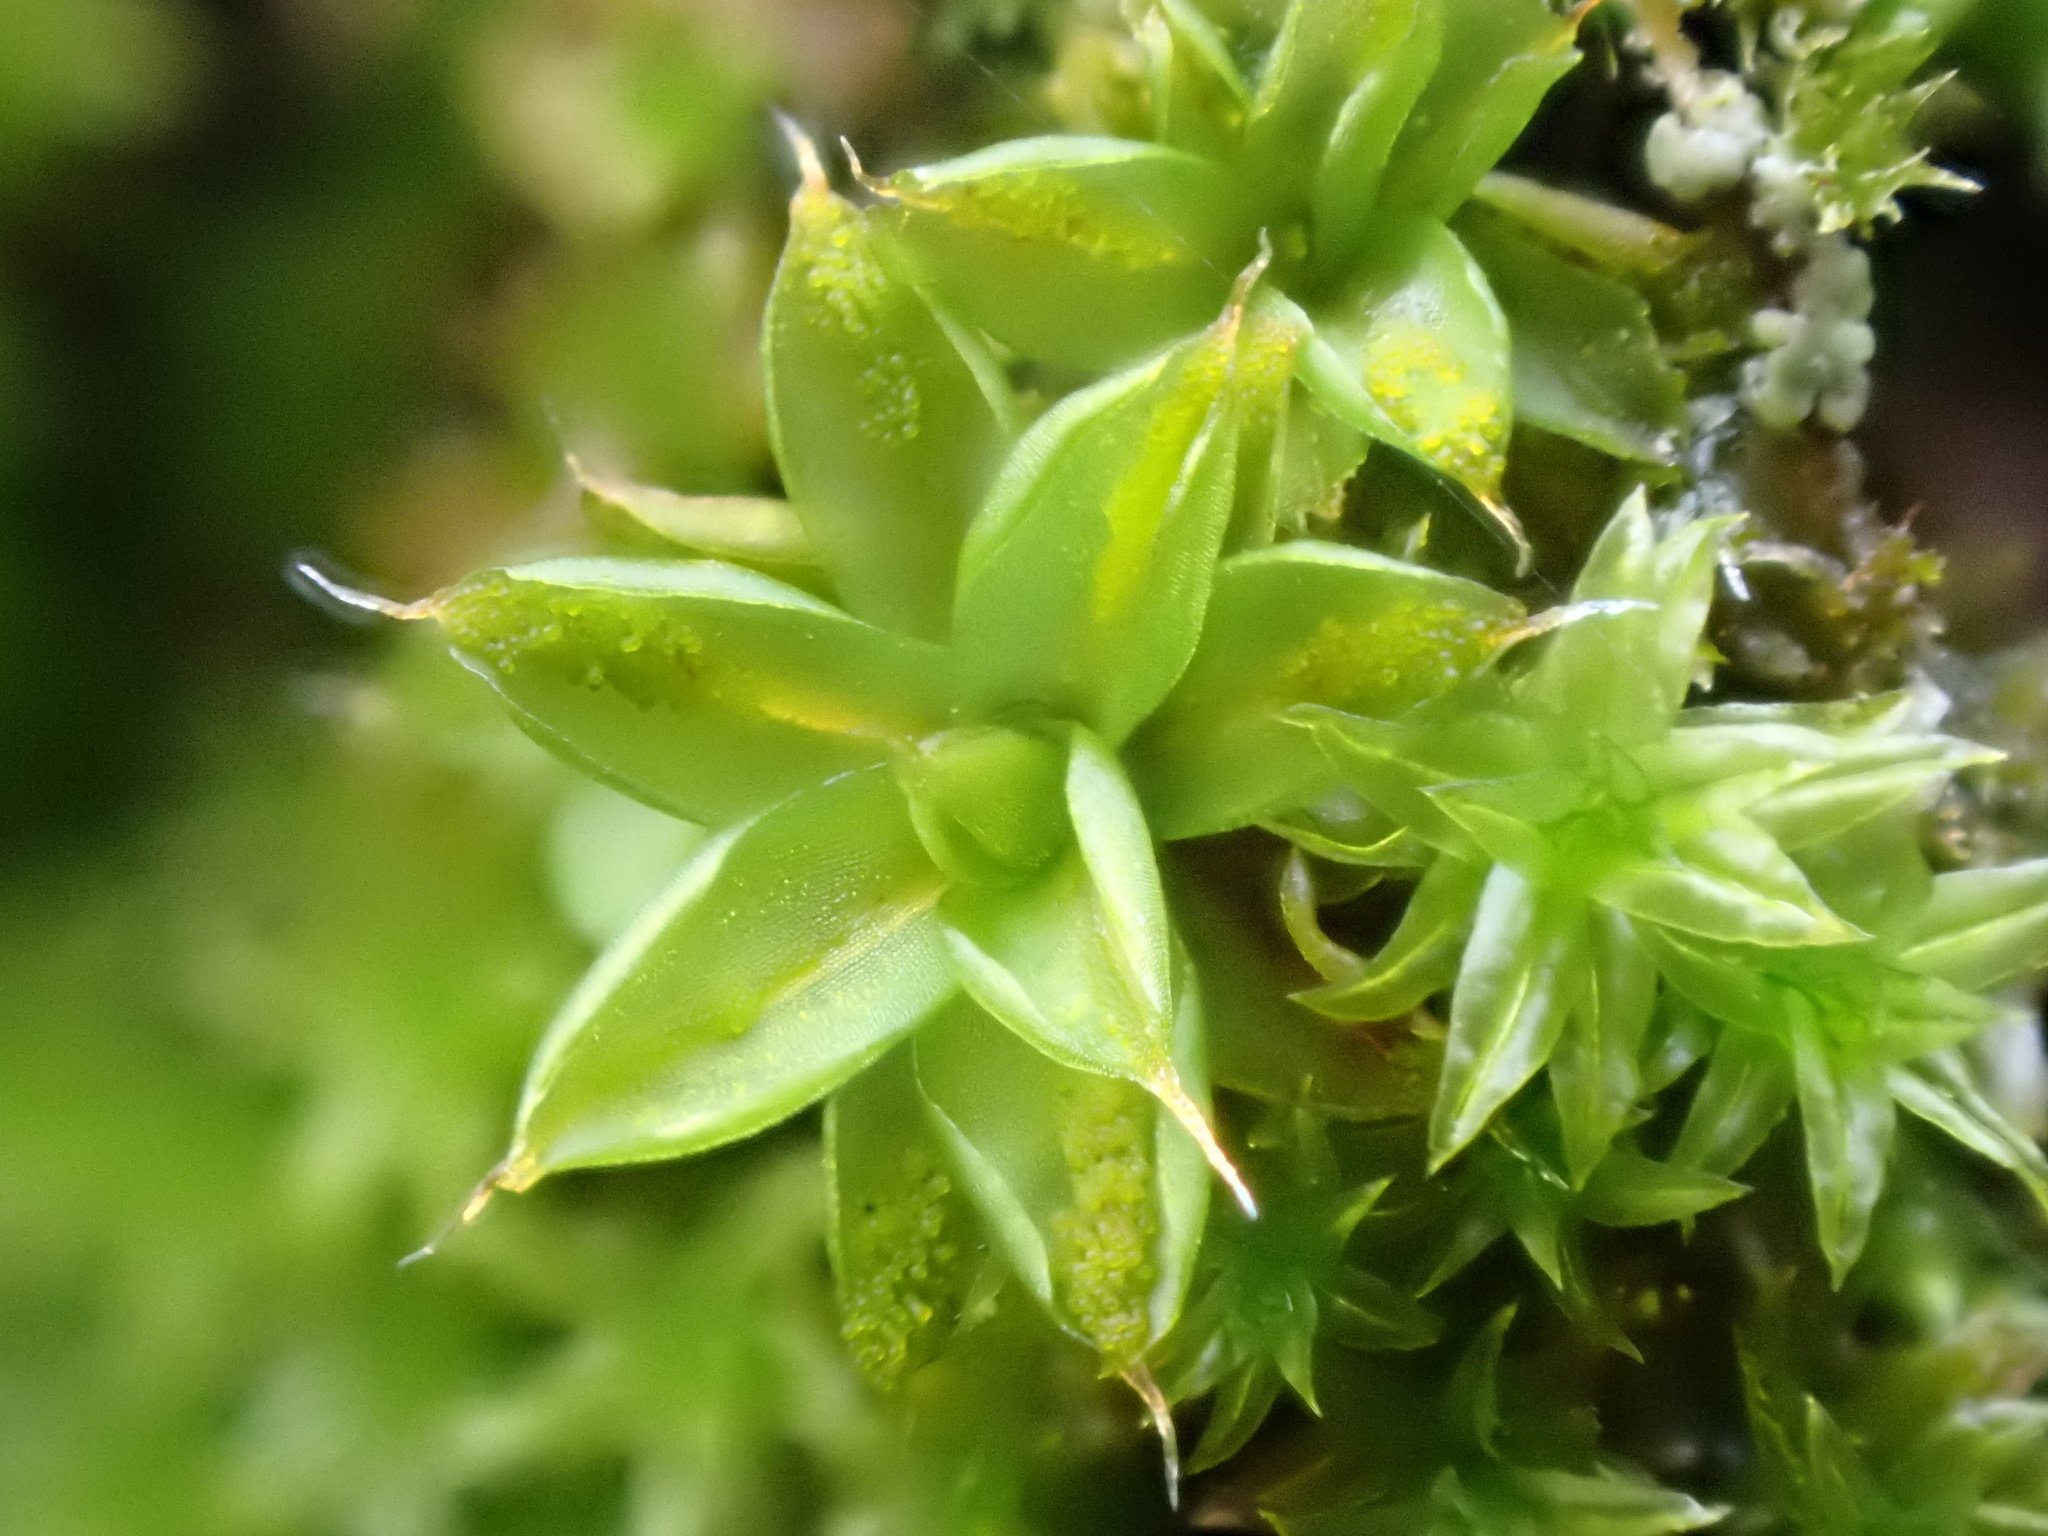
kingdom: Plantae
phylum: Bryophyta
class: Bryopsida
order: Pottiales
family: Pottiaceae
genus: Syntrichia
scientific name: Syntrichia papillosa
